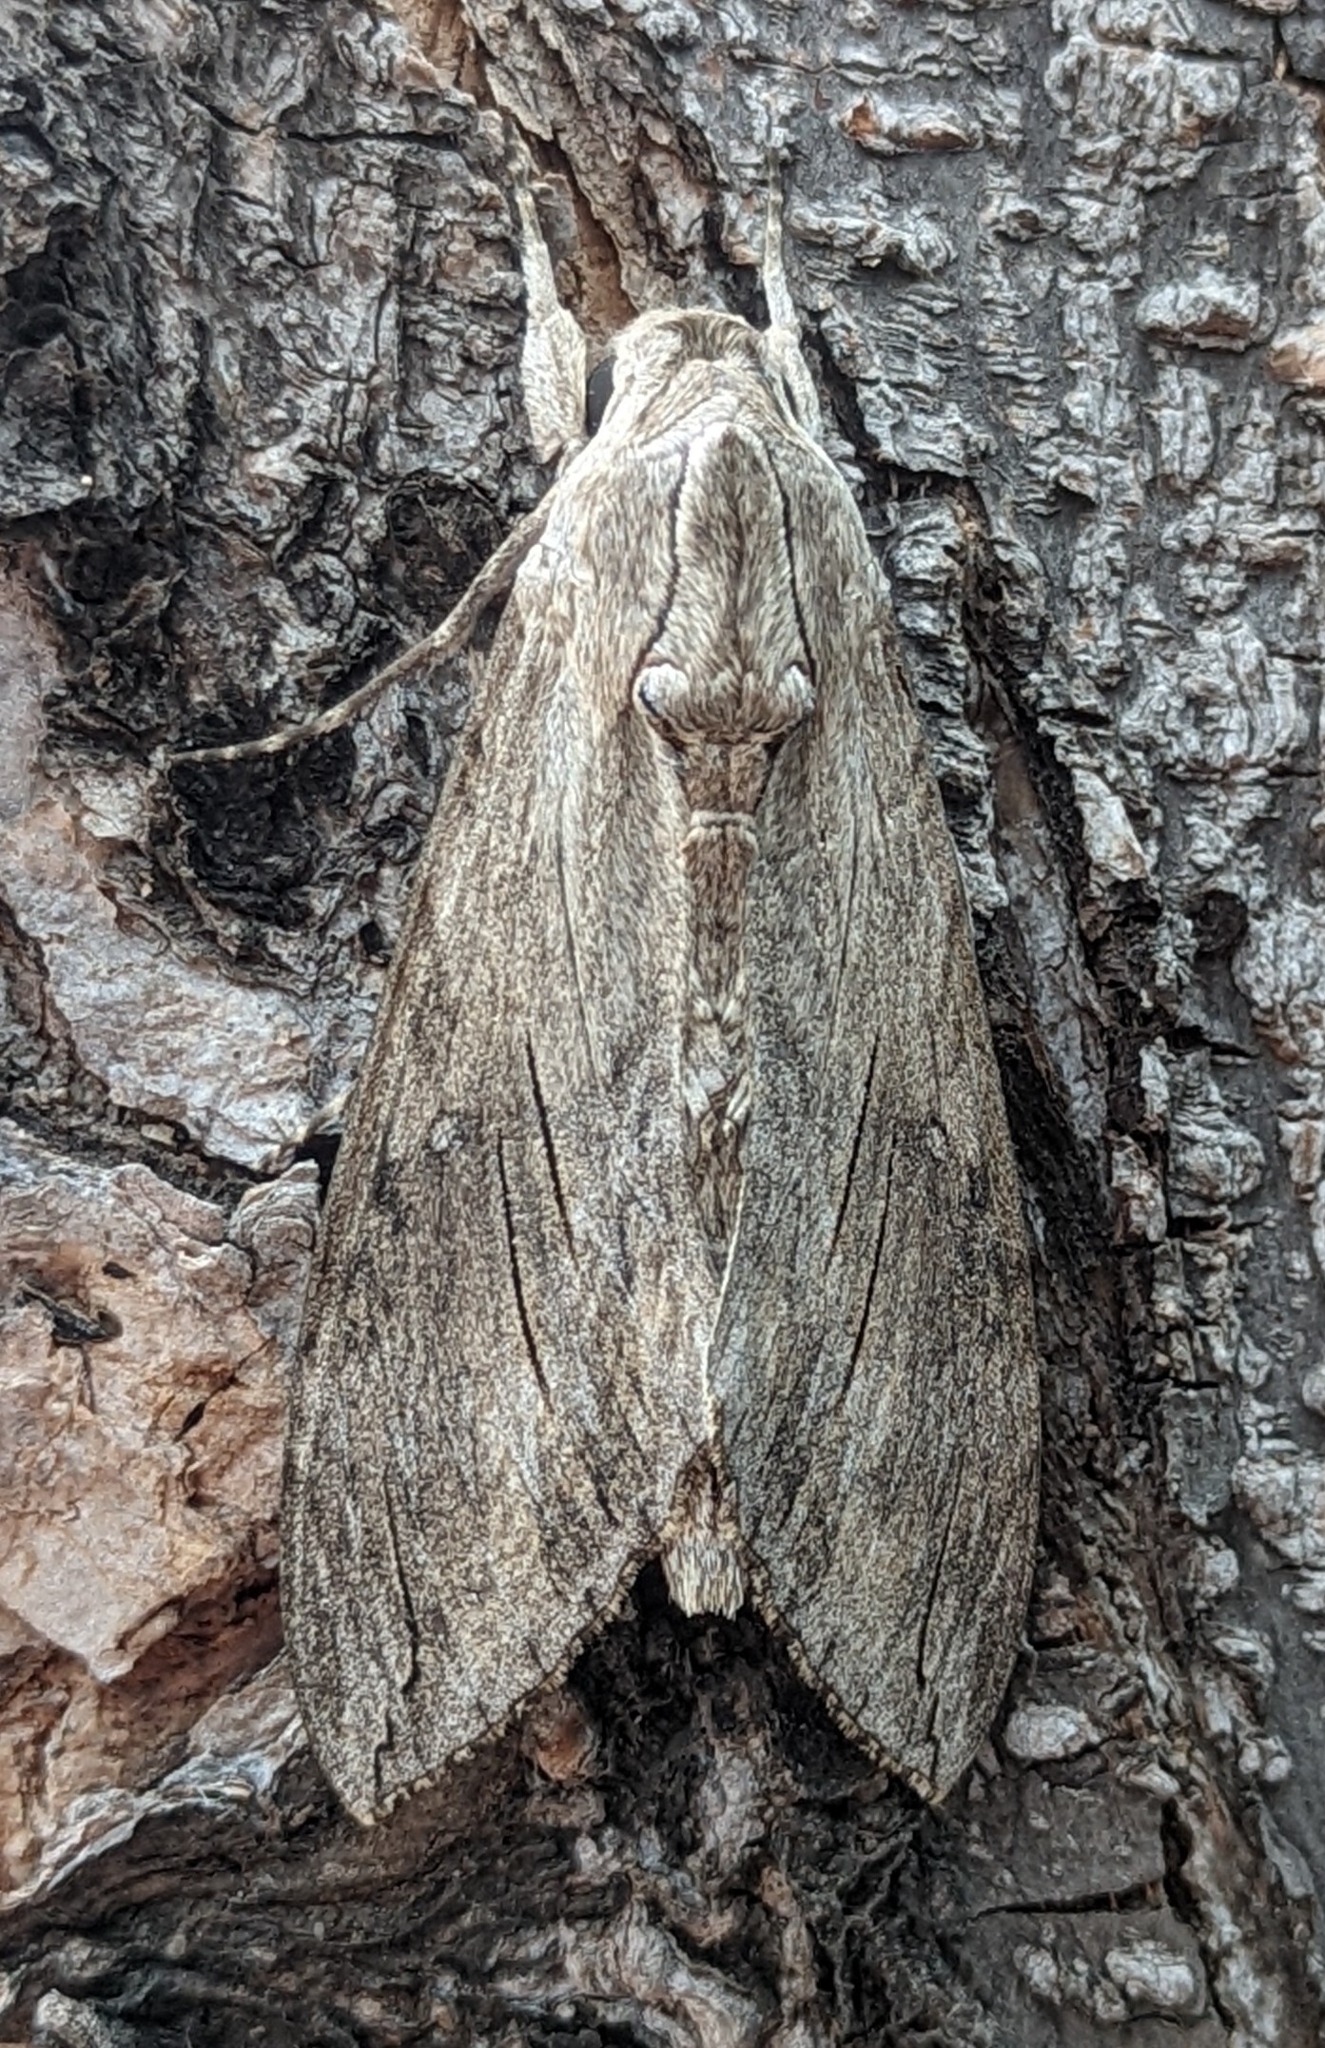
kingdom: Animalia
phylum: Arthropoda
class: Insecta
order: Lepidoptera
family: Sphingidae
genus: Agrius
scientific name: Agrius convolvuli
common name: Convolvulus hawkmoth
